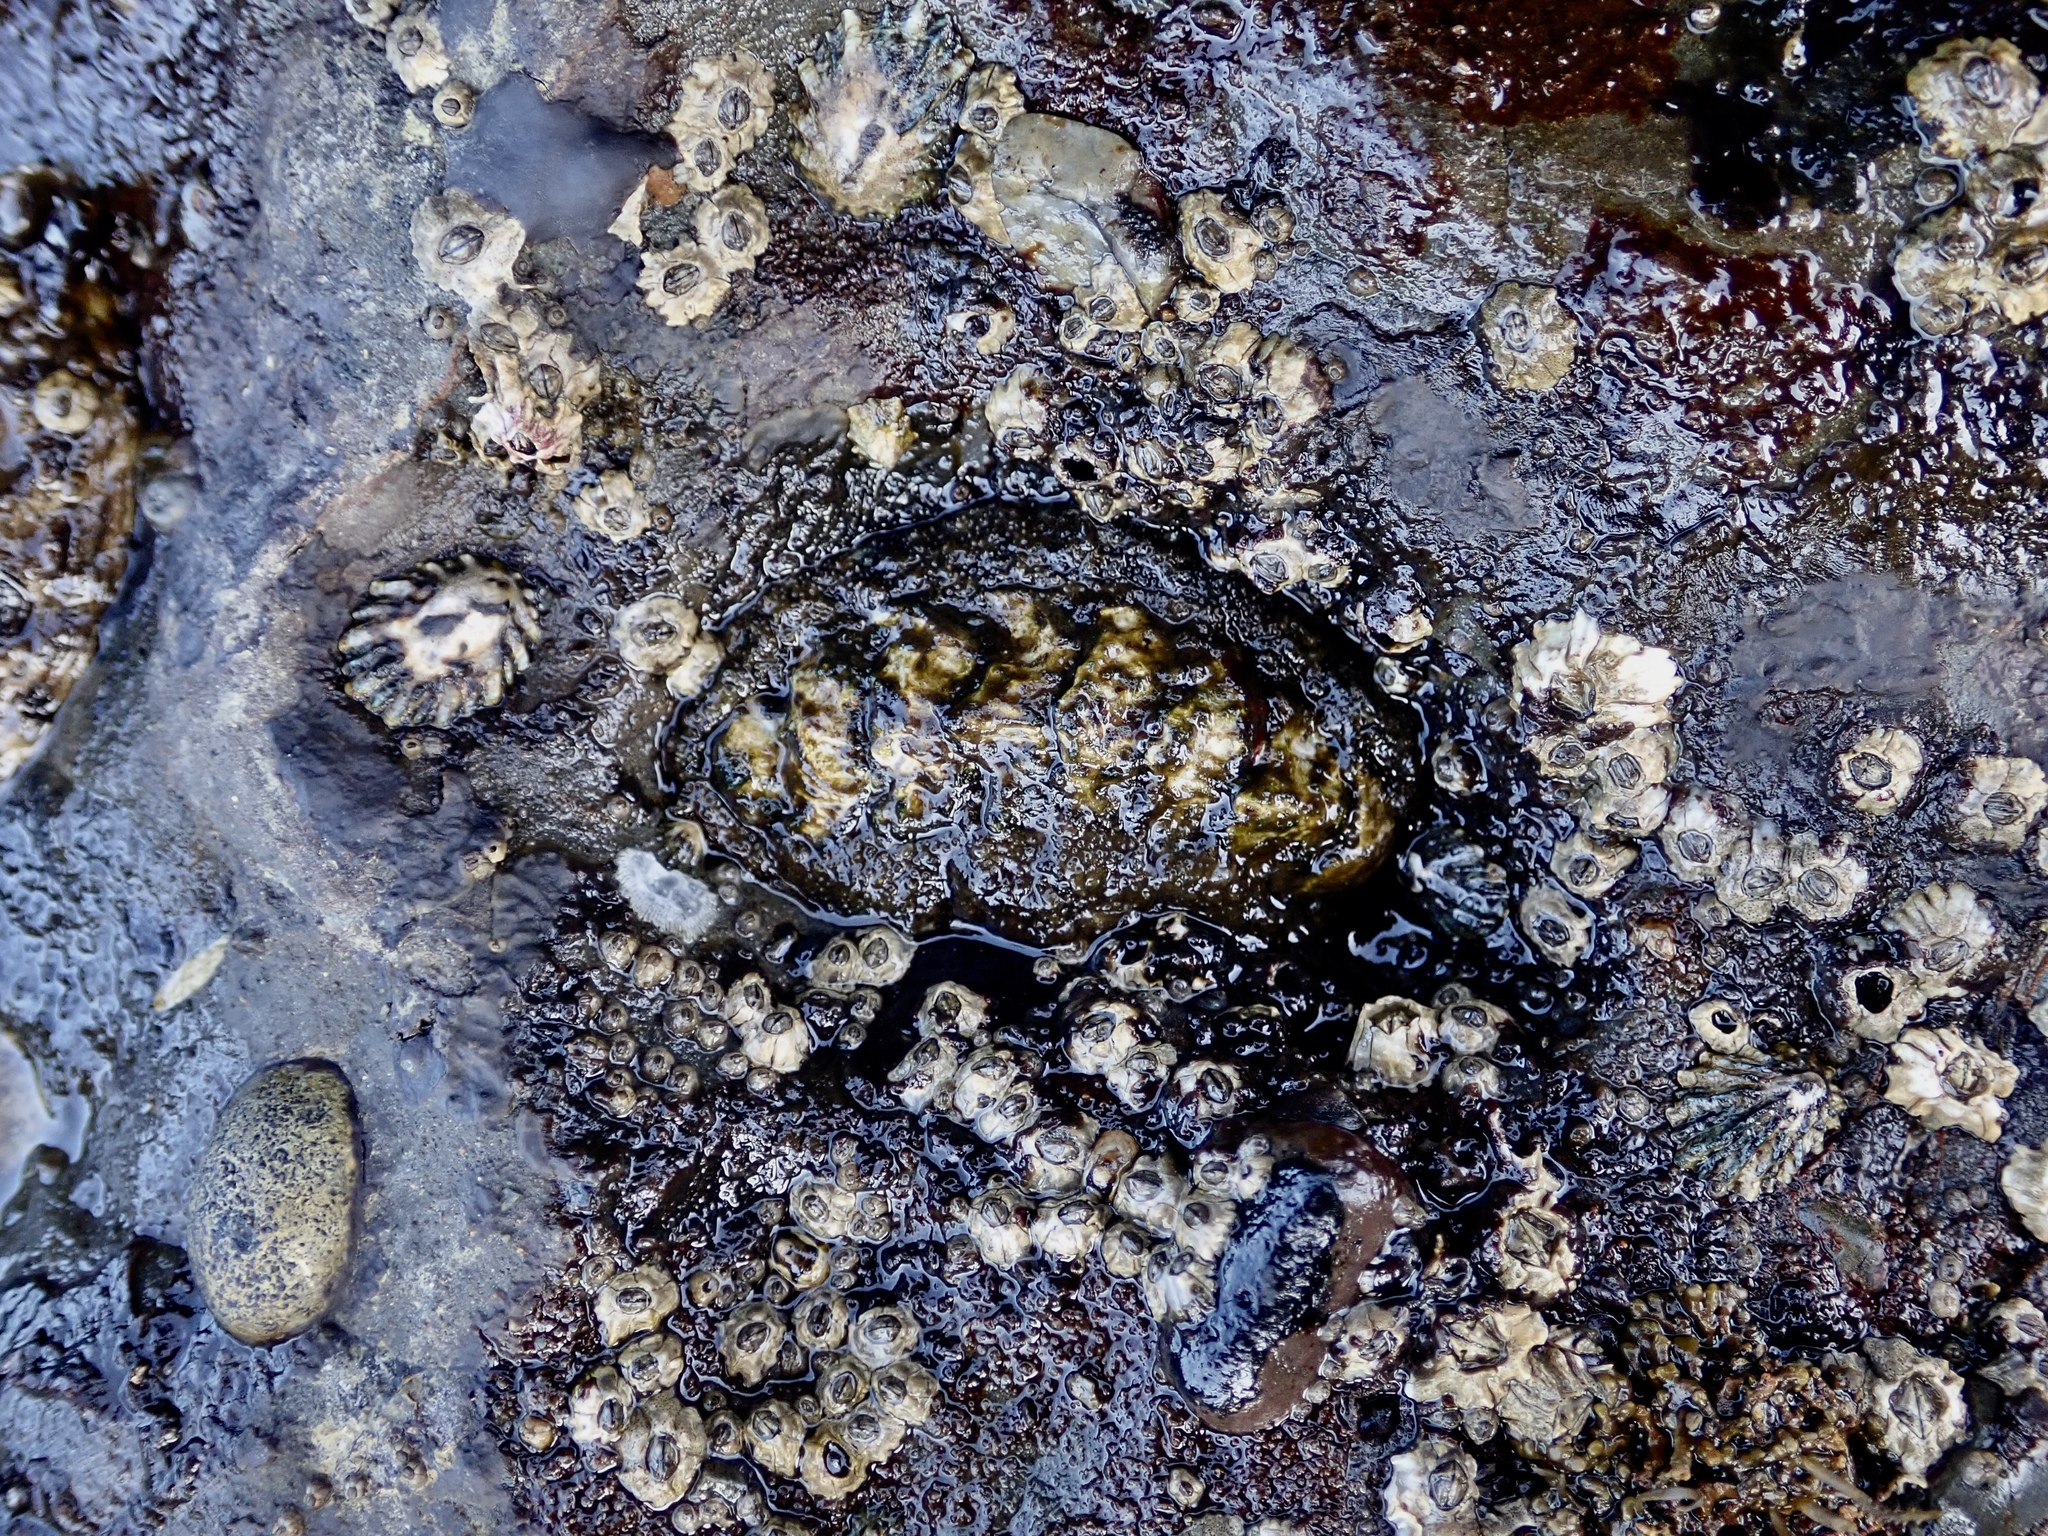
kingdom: Animalia
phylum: Mollusca
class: Polyplacophora
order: Chitonida
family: Tonicellidae
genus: Nuttallina
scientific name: Nuttallina californica
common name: California nuttall chiton
